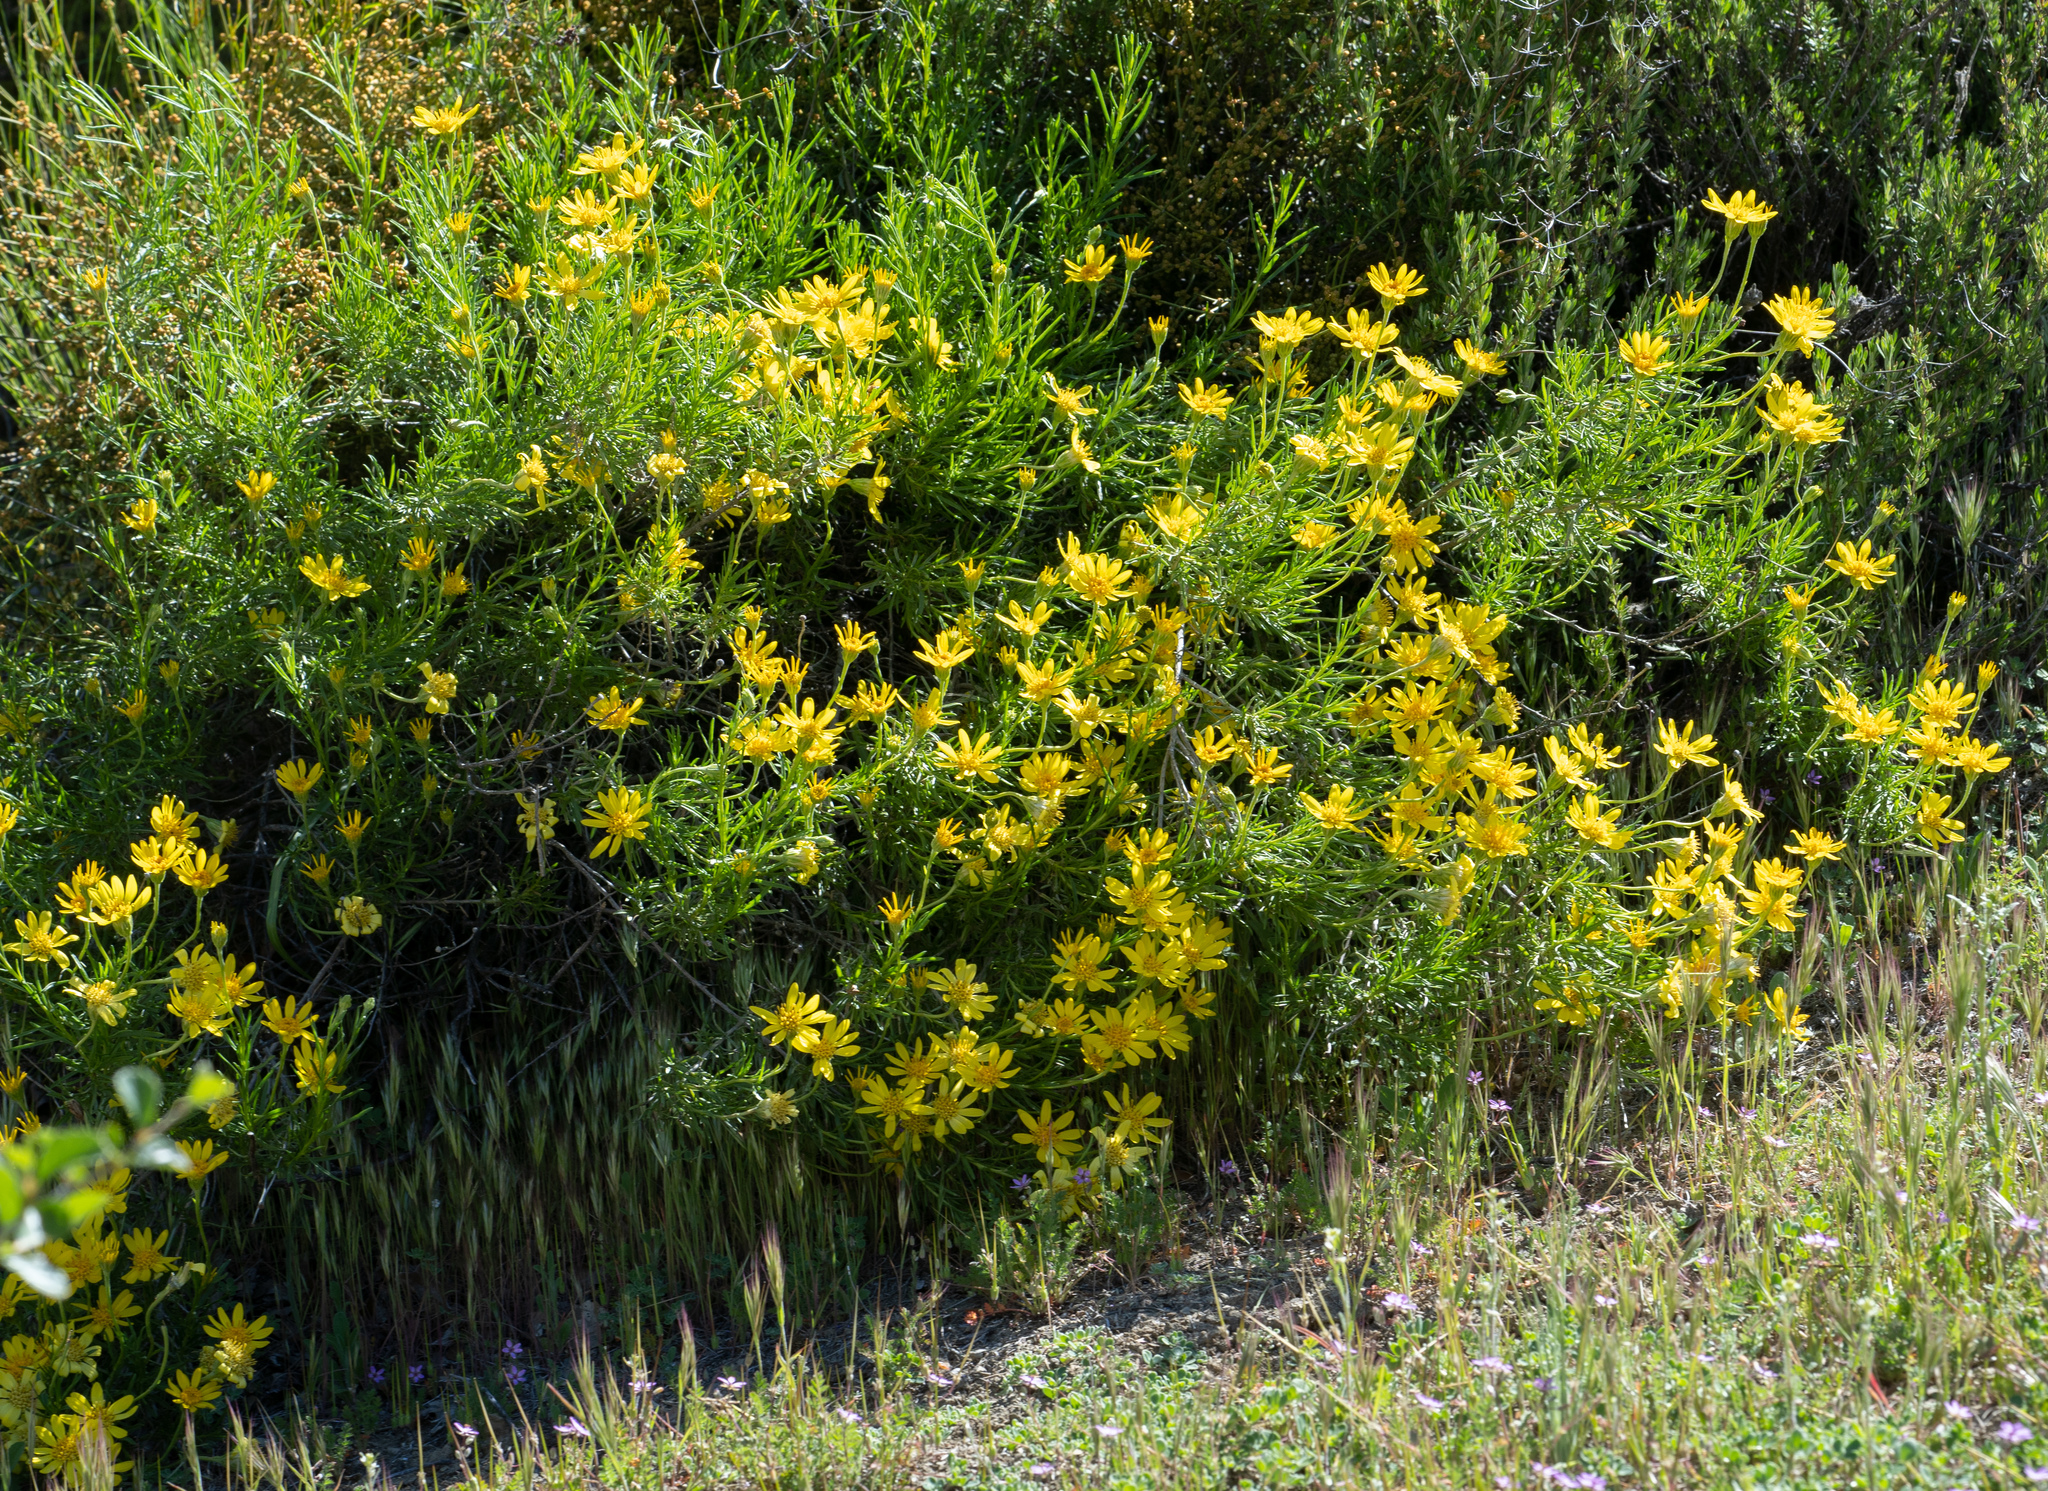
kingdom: Plantae
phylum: Tracheophyta
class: Magnoliopsida
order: Asterales
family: Asteraceae
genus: Ericameria
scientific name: Ericameria linearifolia
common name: Interior goldenbush
